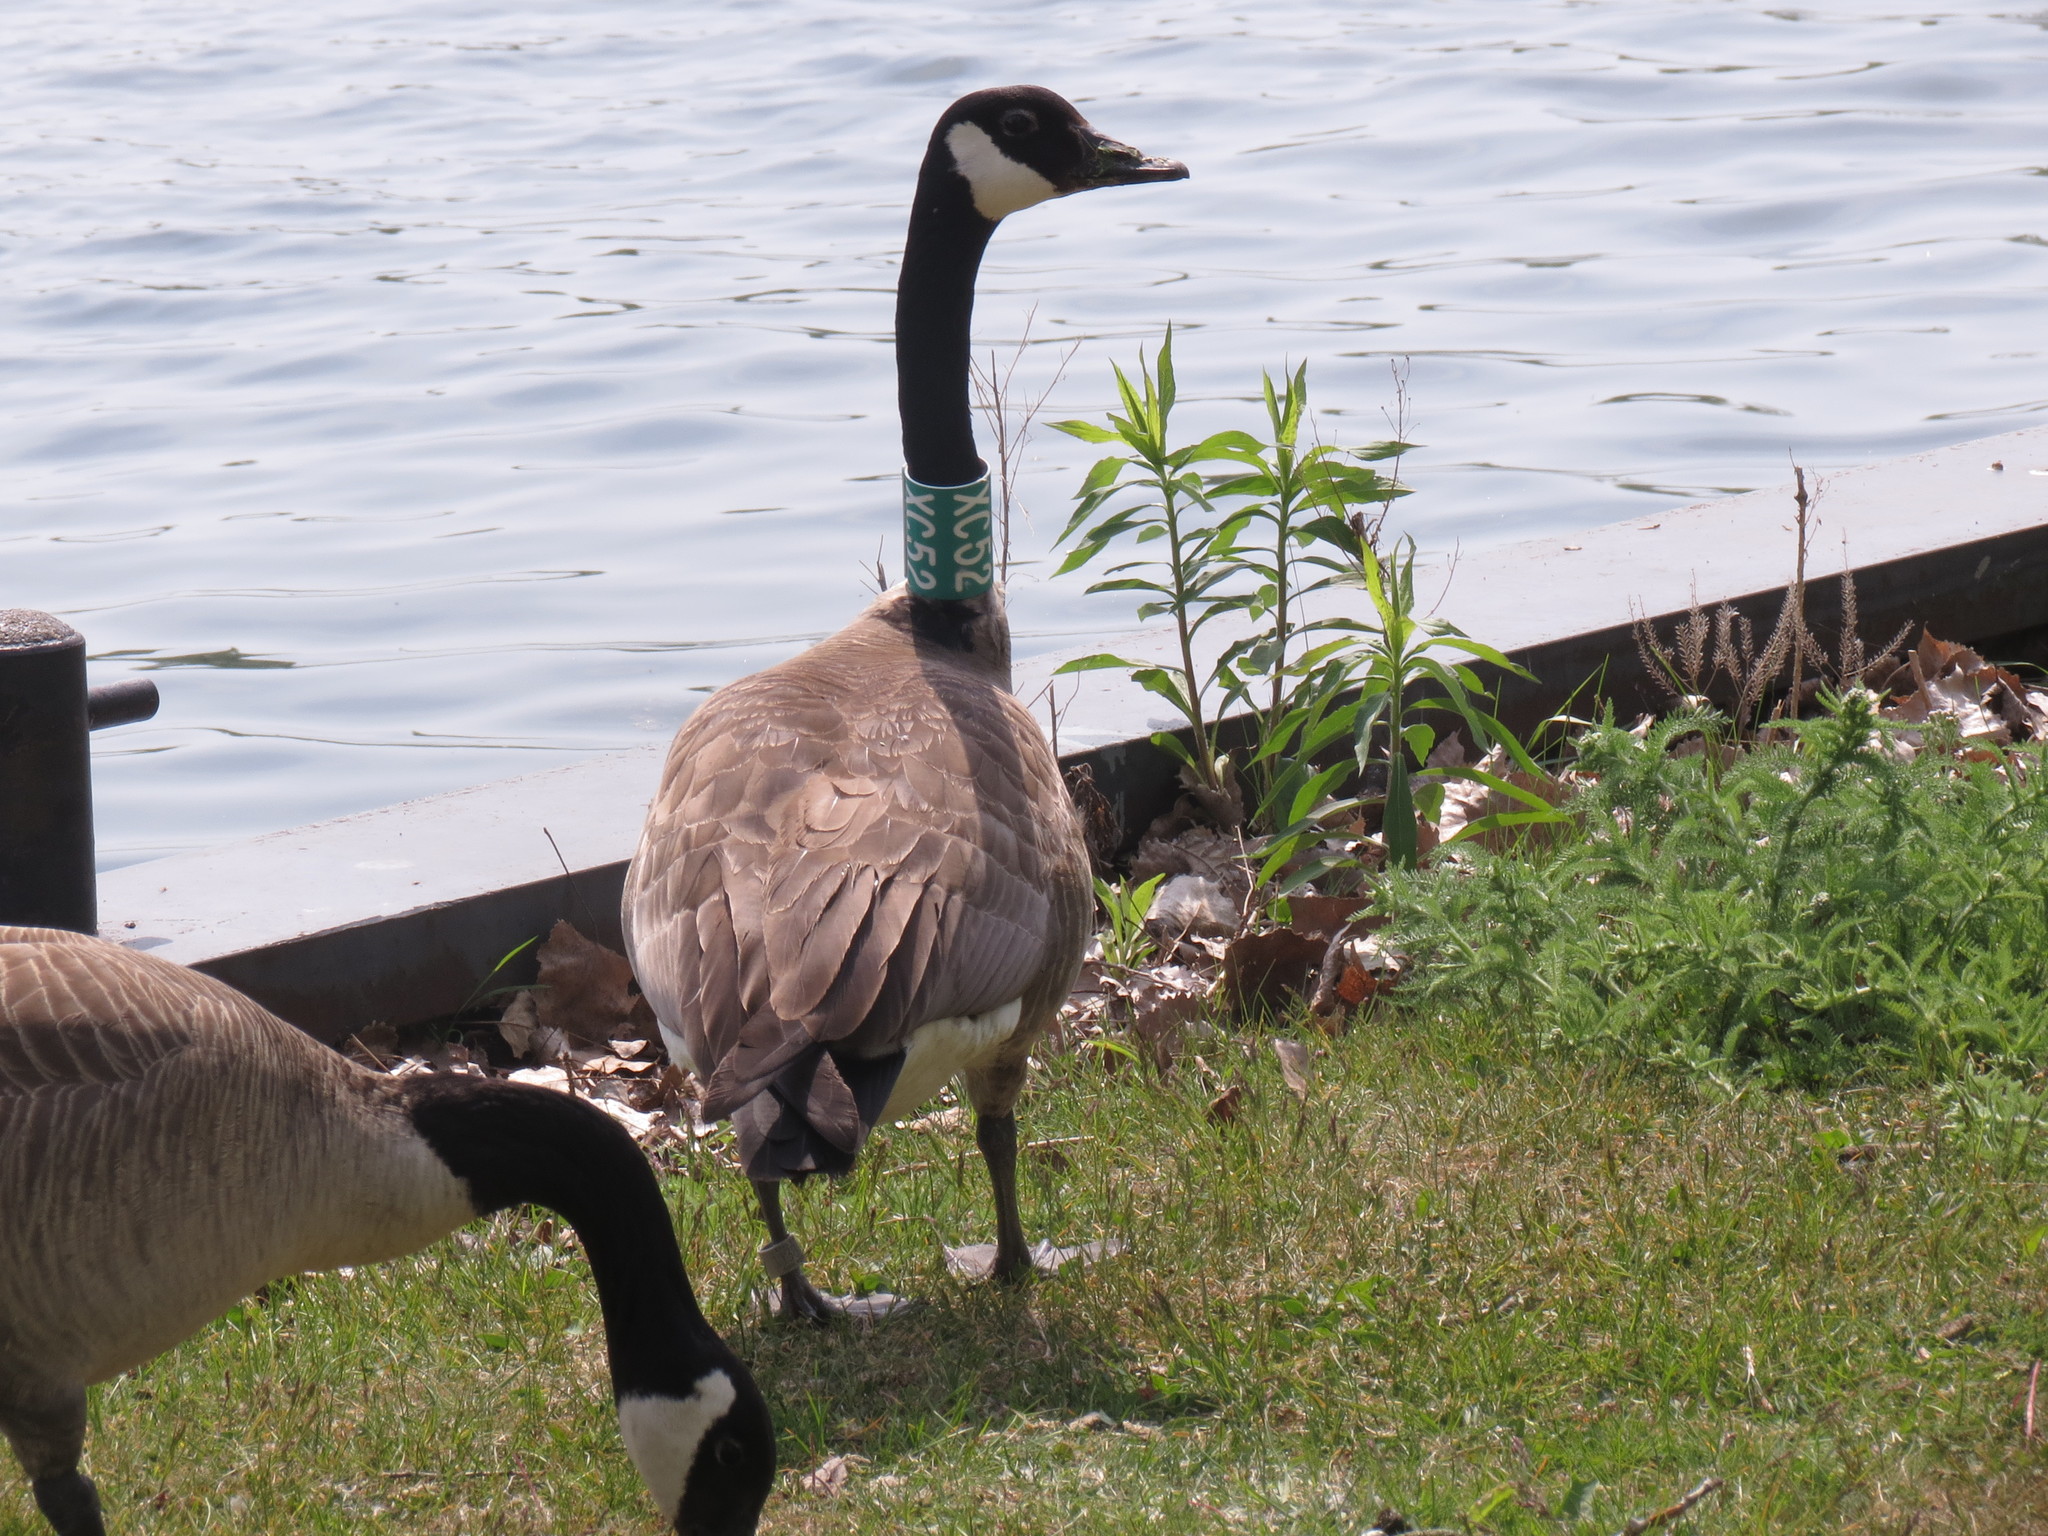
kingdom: Animalia
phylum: Chordata
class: Aves
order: Anseriformes
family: Anatidae
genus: Branta
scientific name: Branta canadensis
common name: Canada goose
